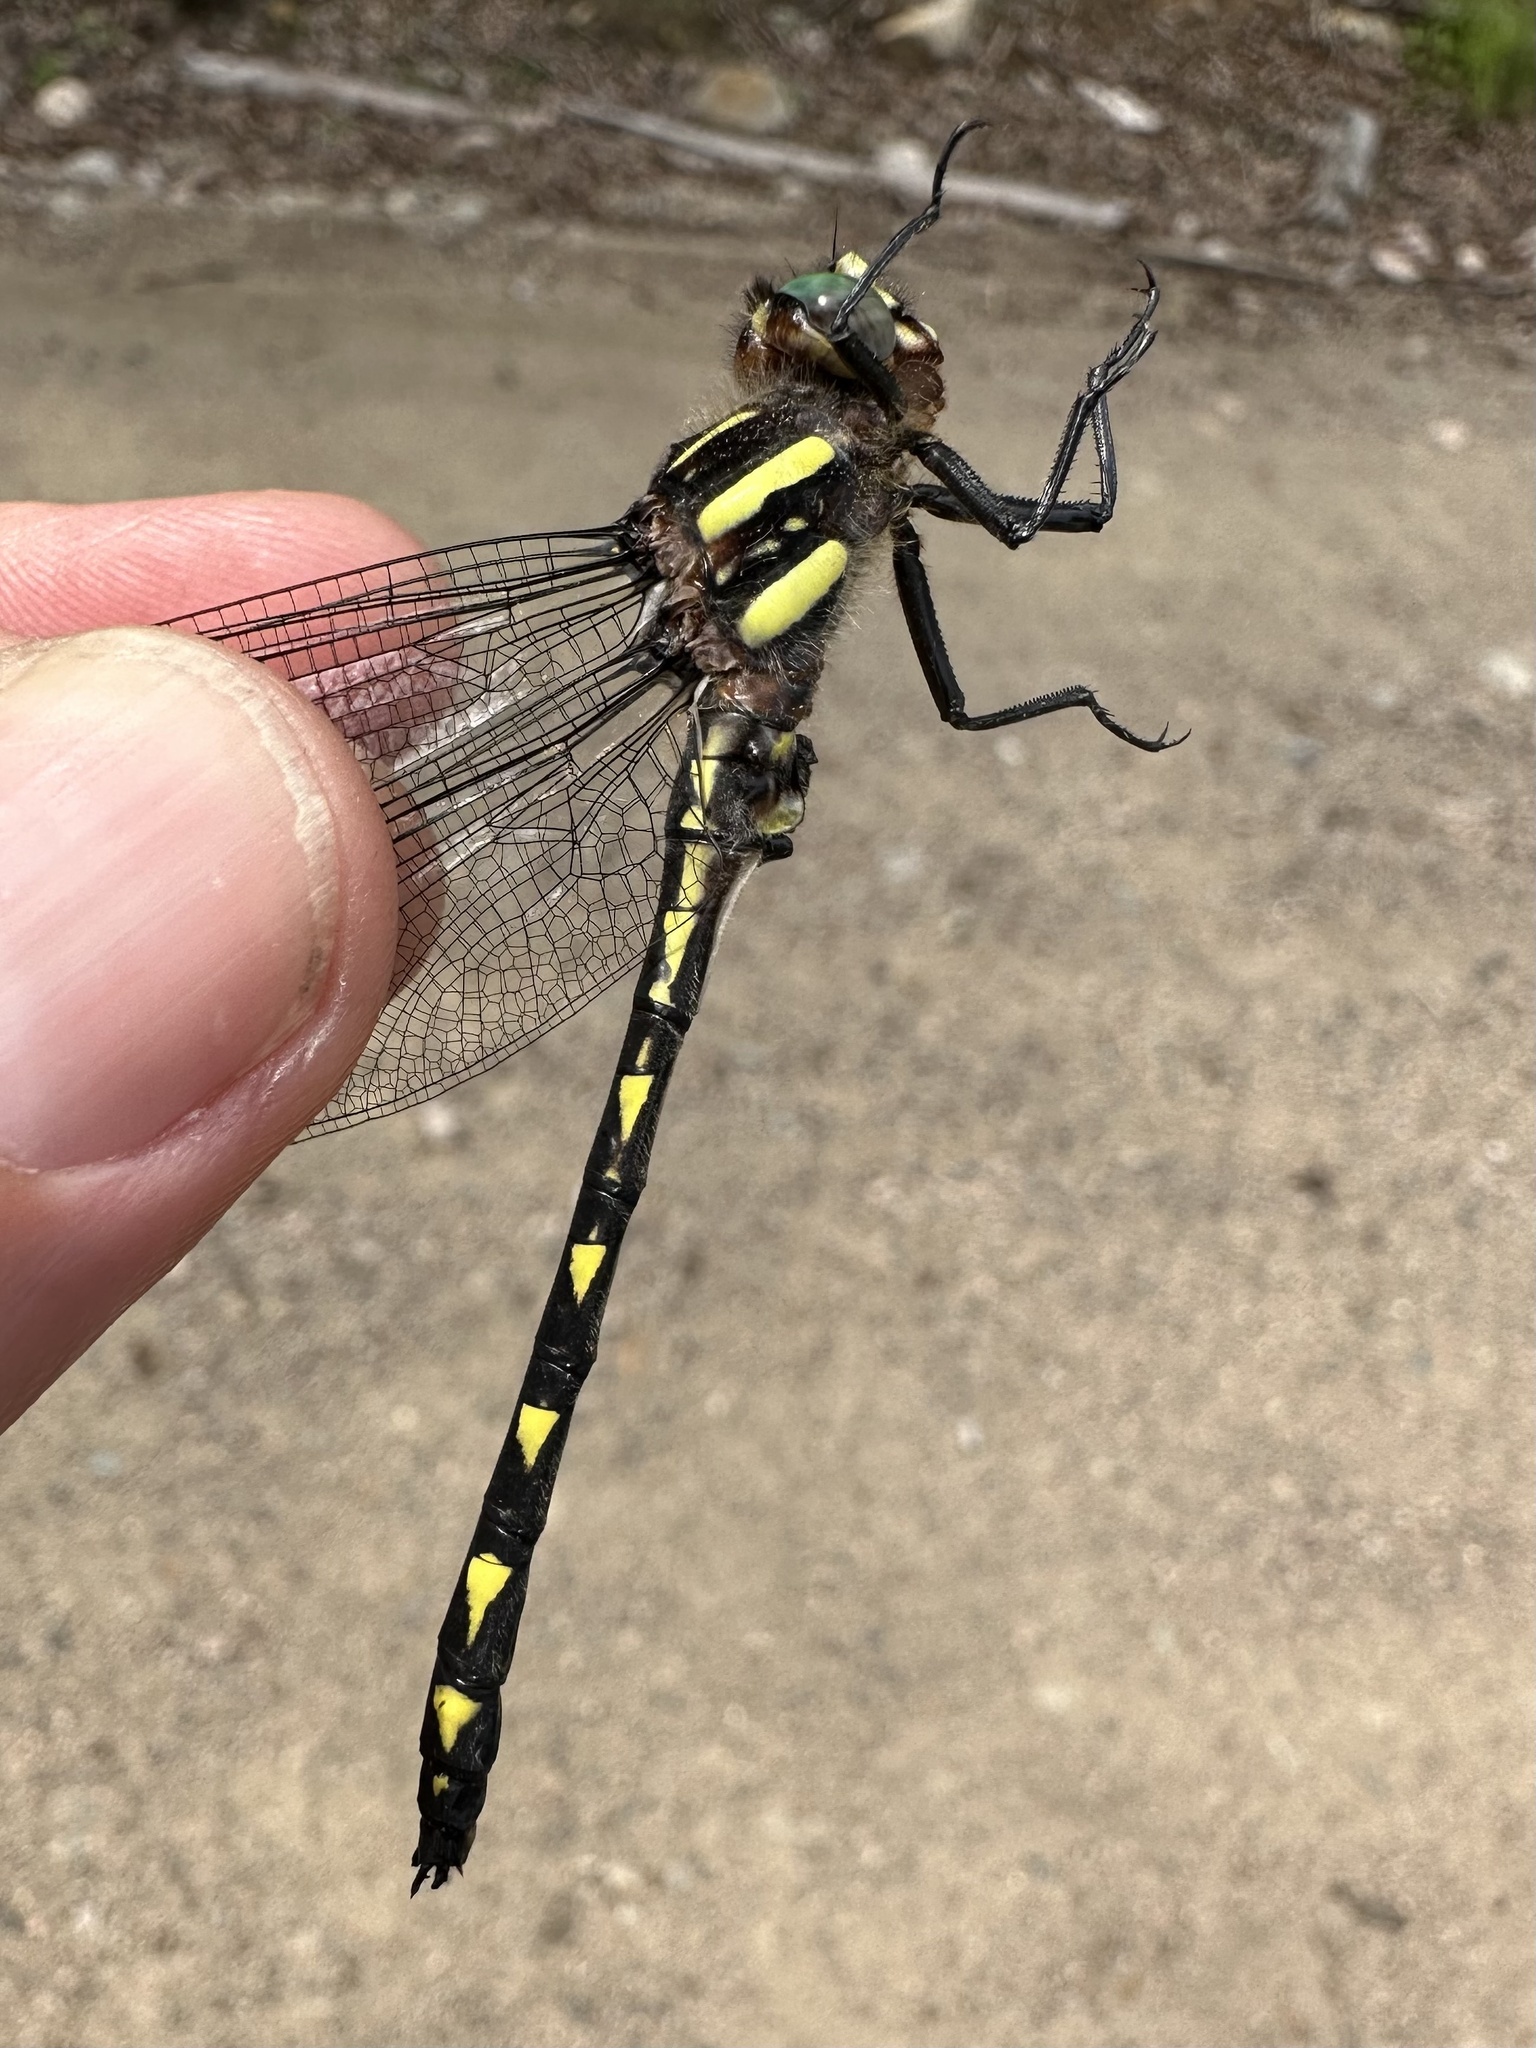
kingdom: Animalia
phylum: Arthropoda
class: Insecta
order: Odonata
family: Cordulegastridae
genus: Cordulegaster
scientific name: Cordulegaster diastatops
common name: Delta-spotted spiketail
